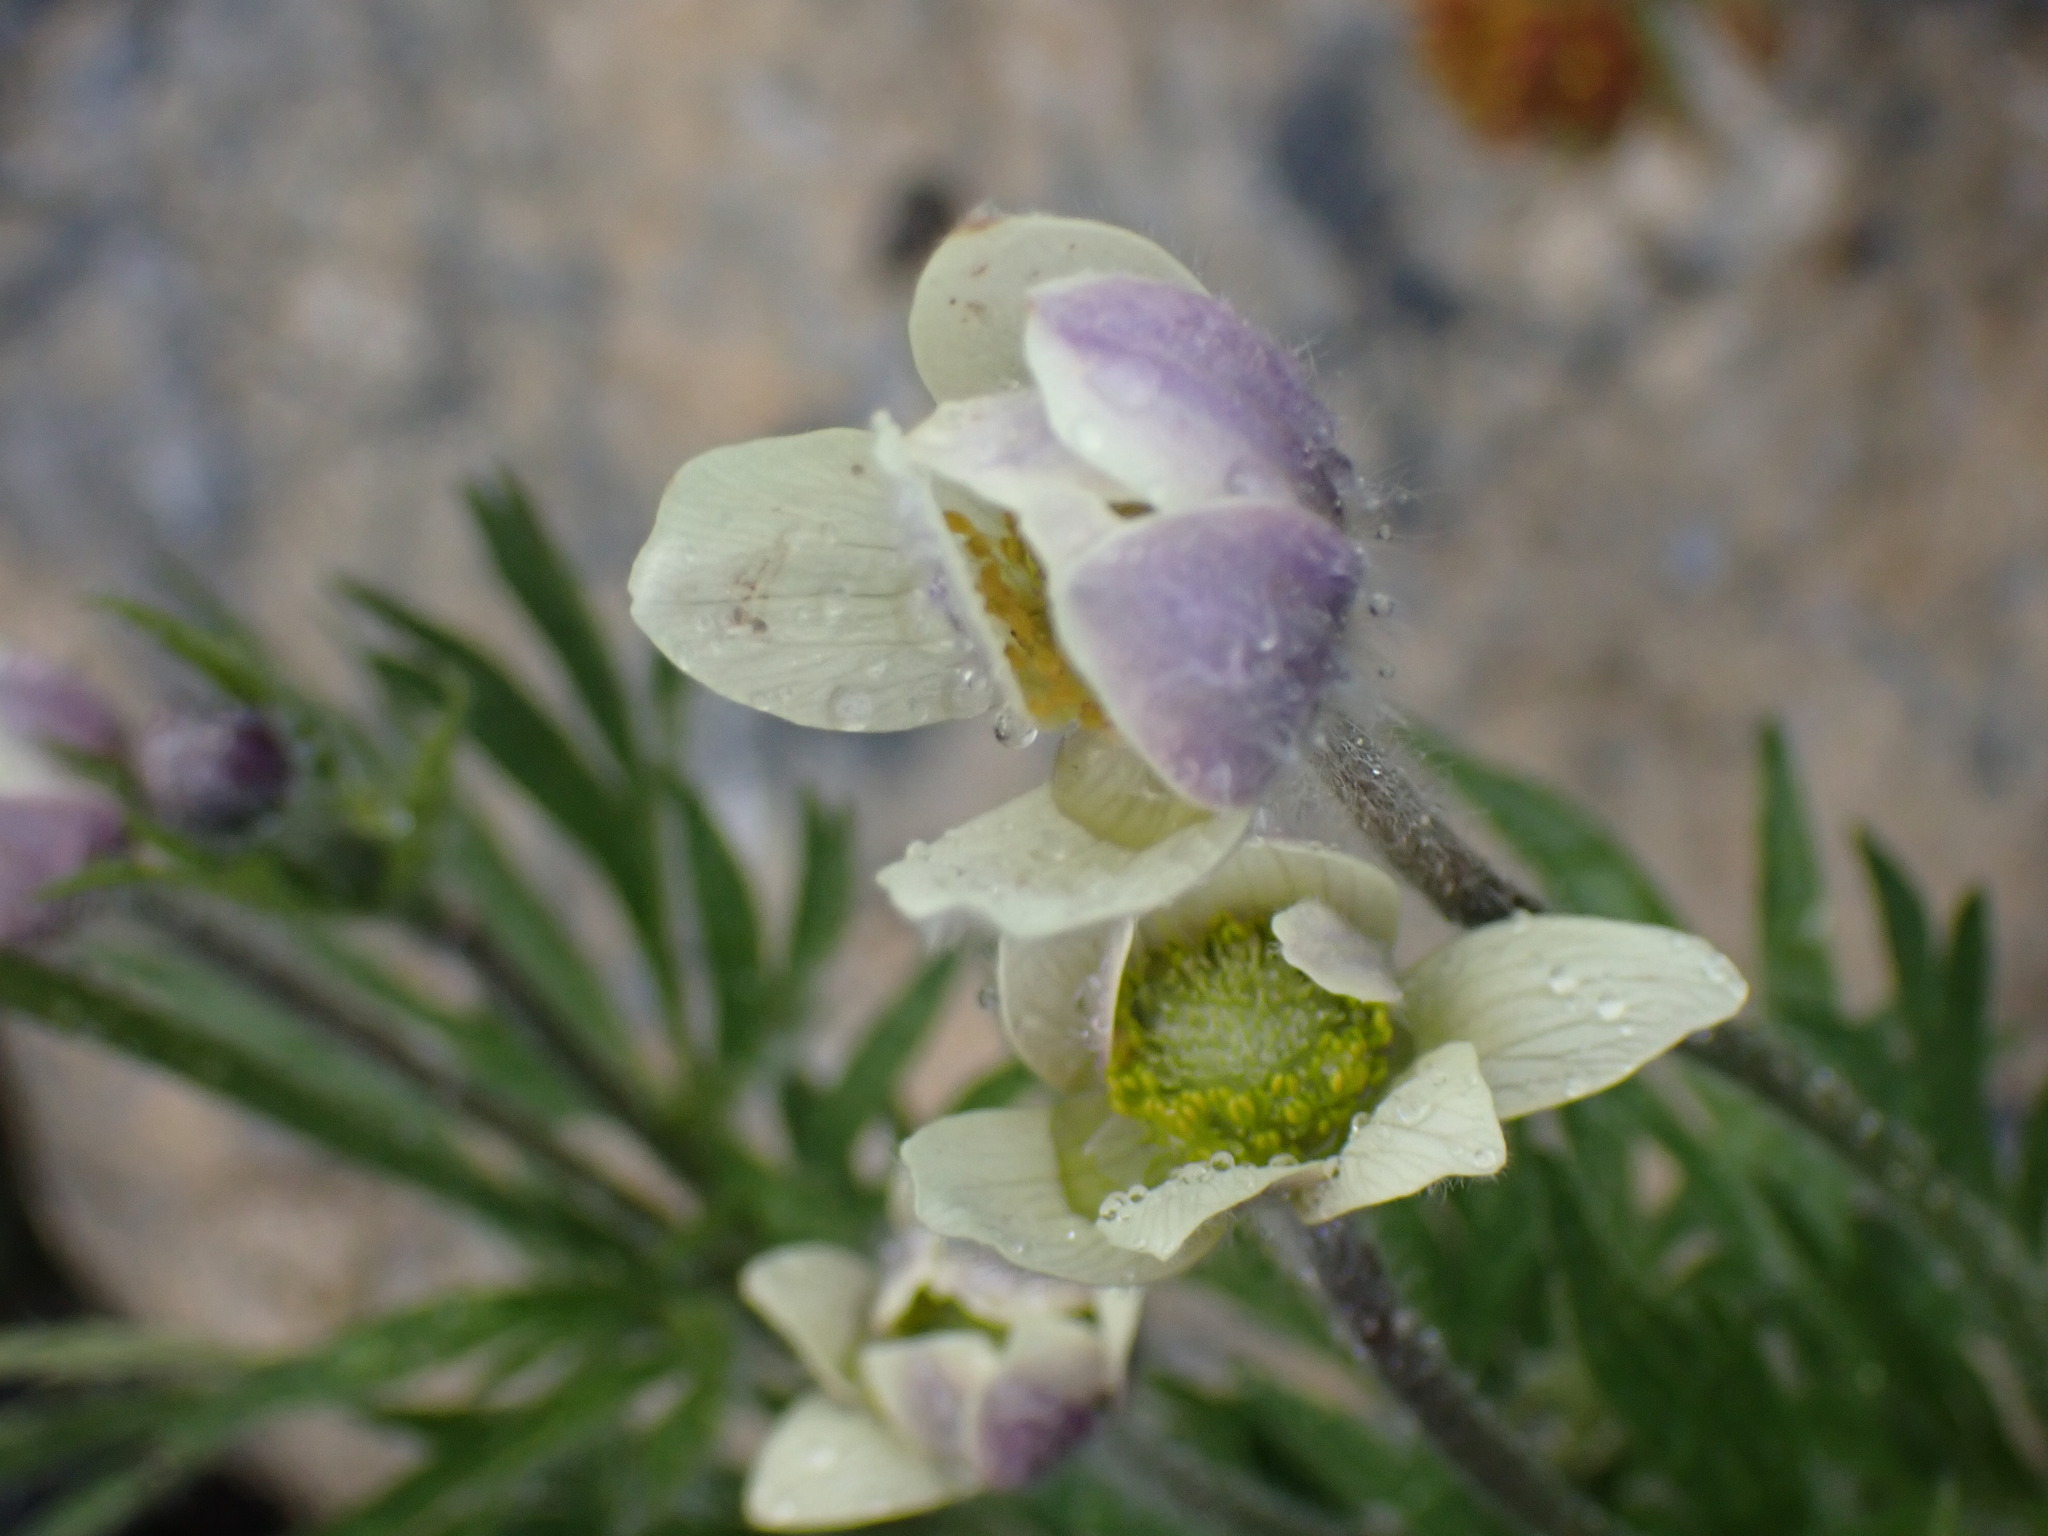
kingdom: Plantae
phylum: Tracheophyta
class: Magnoliopsida
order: Ranunculales
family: Ranunculaceae
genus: Anemone
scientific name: Anemone multifida
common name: Bird's-foot anemone
